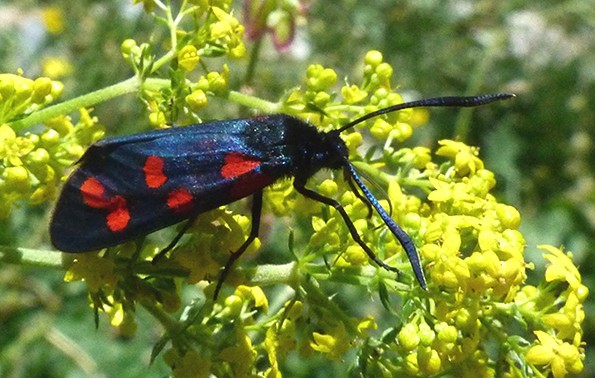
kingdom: Animalia
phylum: Arthropoda
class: Insecta
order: Lepidoptera
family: Zygaenidae
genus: Zygaena
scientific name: Zygaena transalpina
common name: Southern six spot burnet
